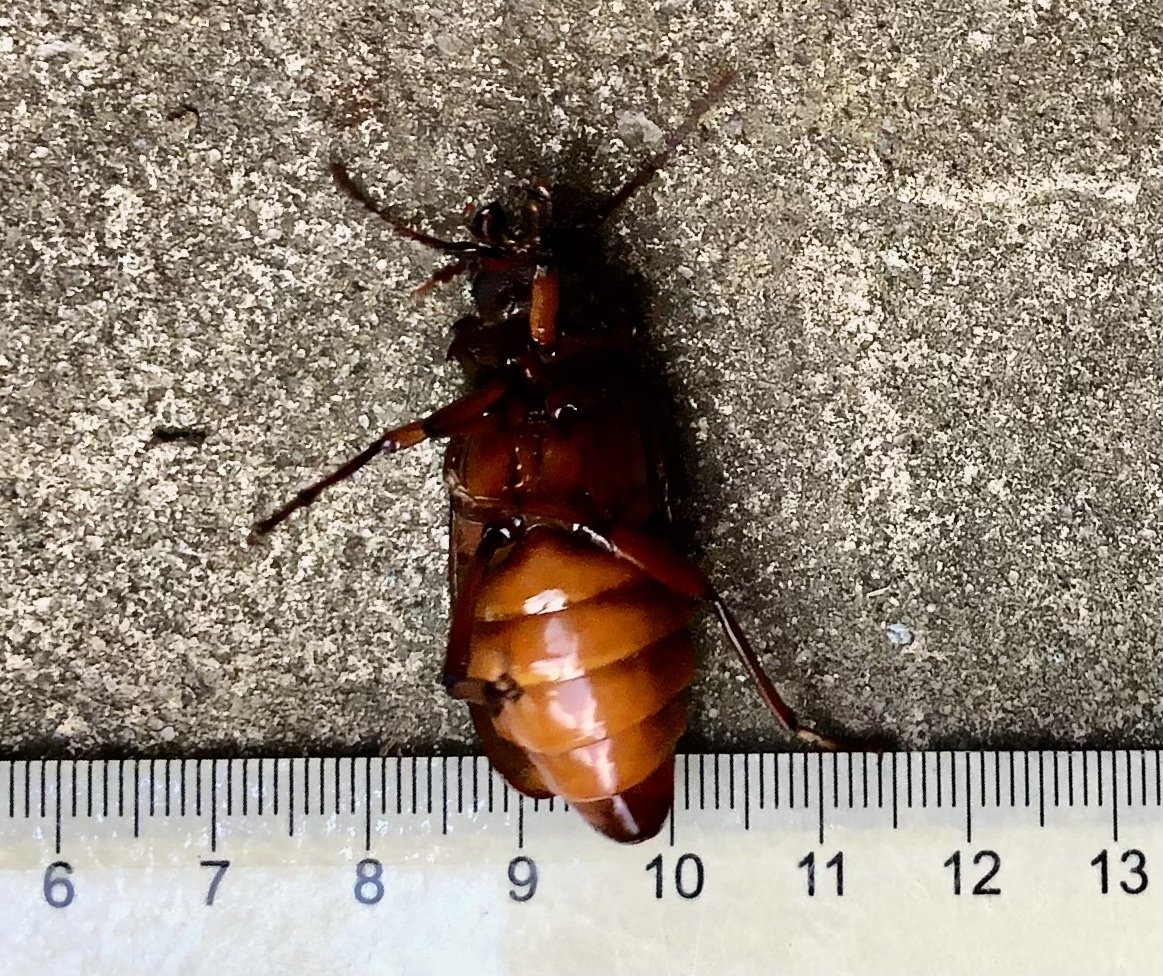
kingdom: Animalia
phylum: Arthropoda
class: Insecta
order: Coleoptera
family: Cerambycidae
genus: Prionus
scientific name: Prionus laticollis
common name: Broad necked prionus
